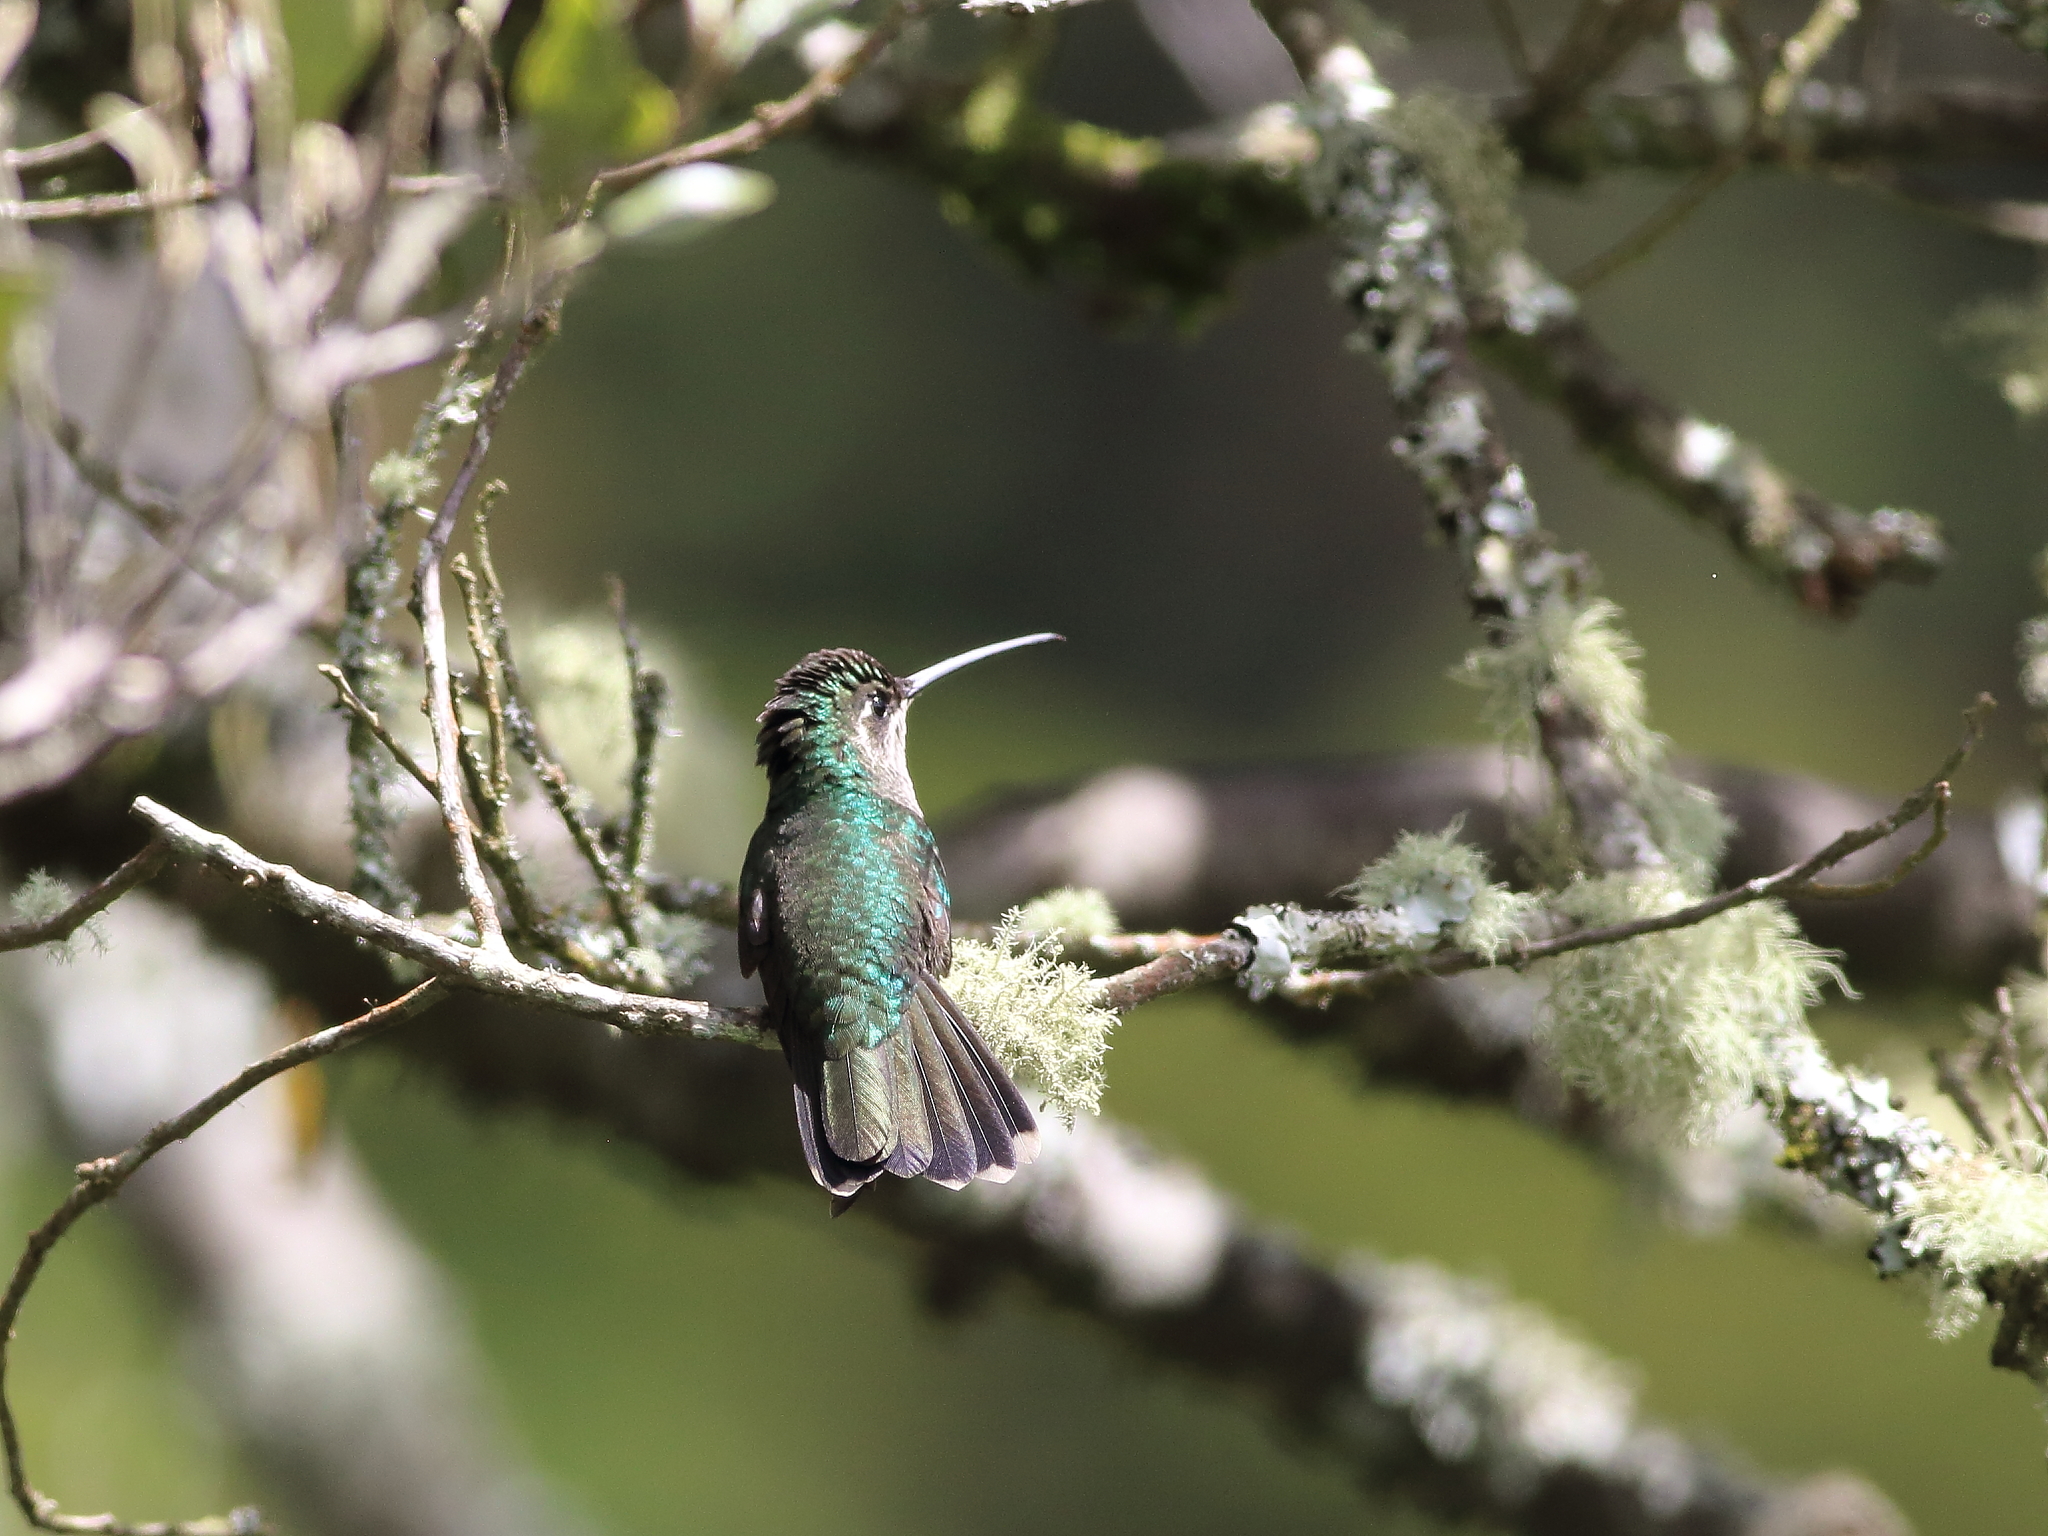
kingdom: Animalia
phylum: Chordata
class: Aves
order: Apodiformes
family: Trochilidae
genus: Eugenes
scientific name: Eugenes spectabilis
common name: Talamanca hummingbird
